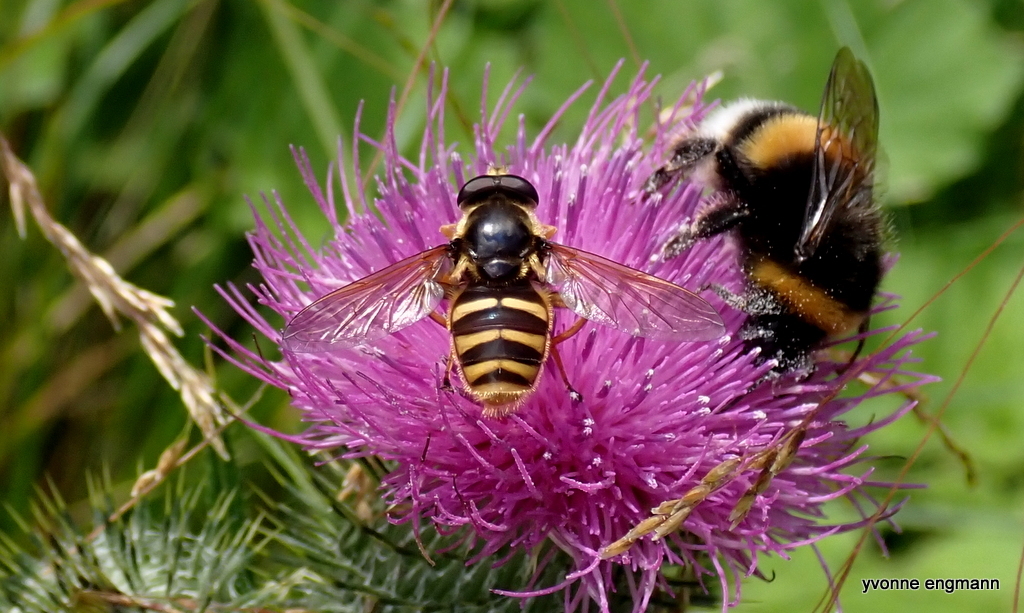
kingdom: Animalia
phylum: Arthropoda
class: Insecta
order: Diptera
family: Syrphidae
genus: Sericomyia
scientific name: Sericomyia silentis
